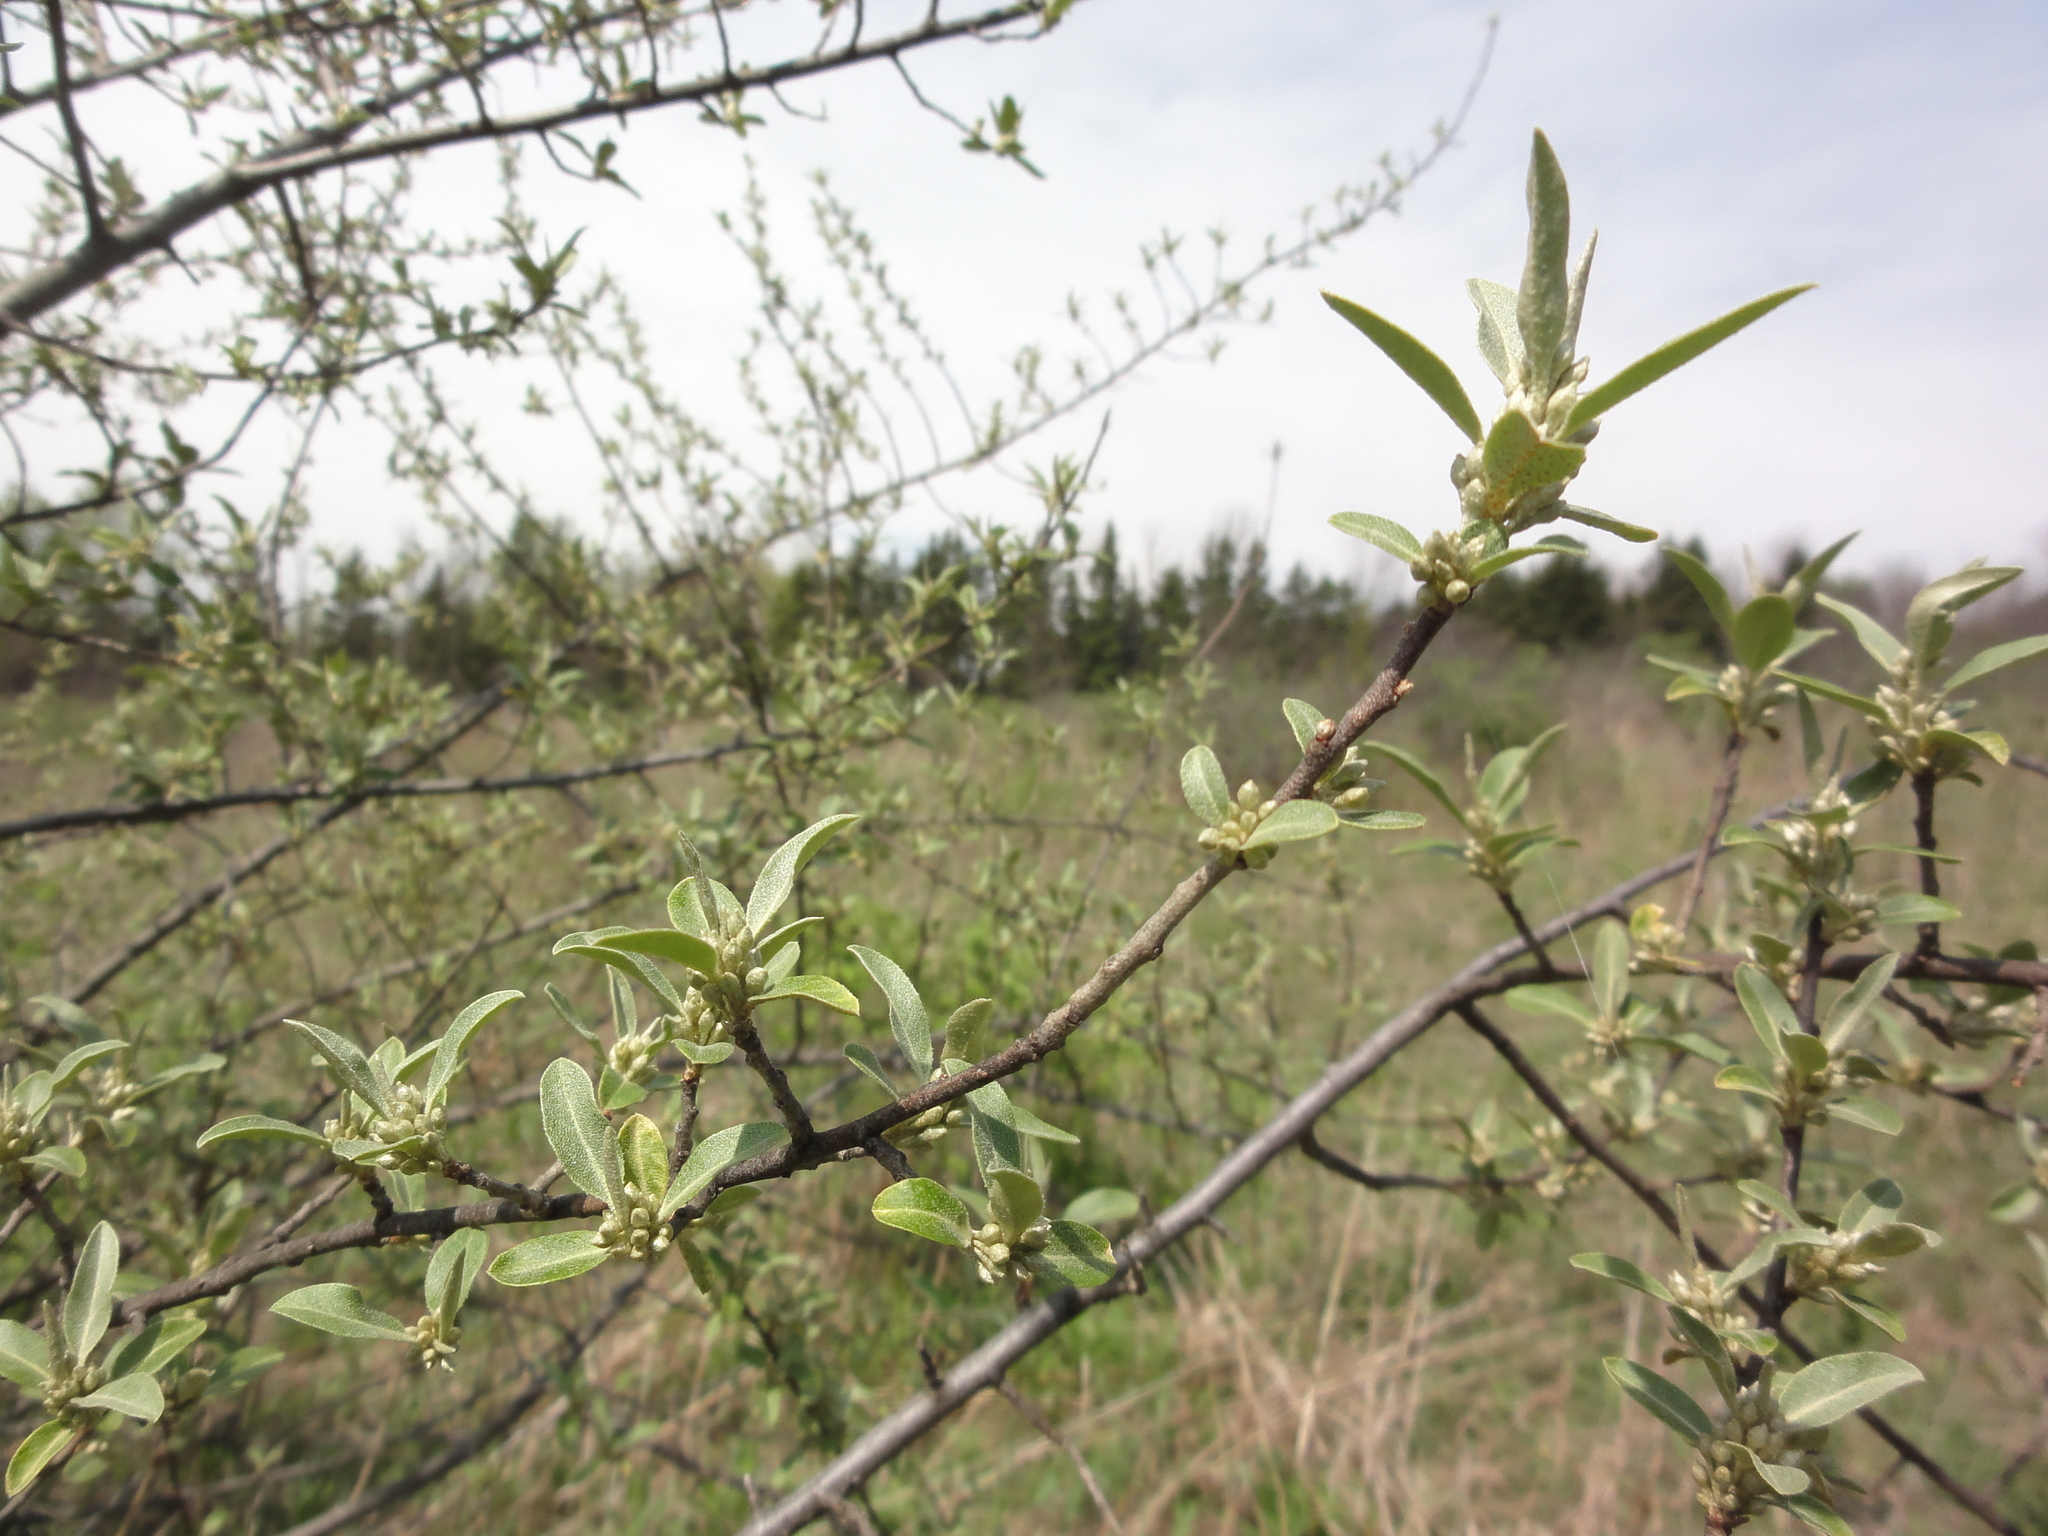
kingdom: Plantae
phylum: Tracheophyta
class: Magnoliopsida
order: Rosales
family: Elaeagnaceae
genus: Elaeagnus
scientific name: Elaeagnus umbellata
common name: Autumn olive
